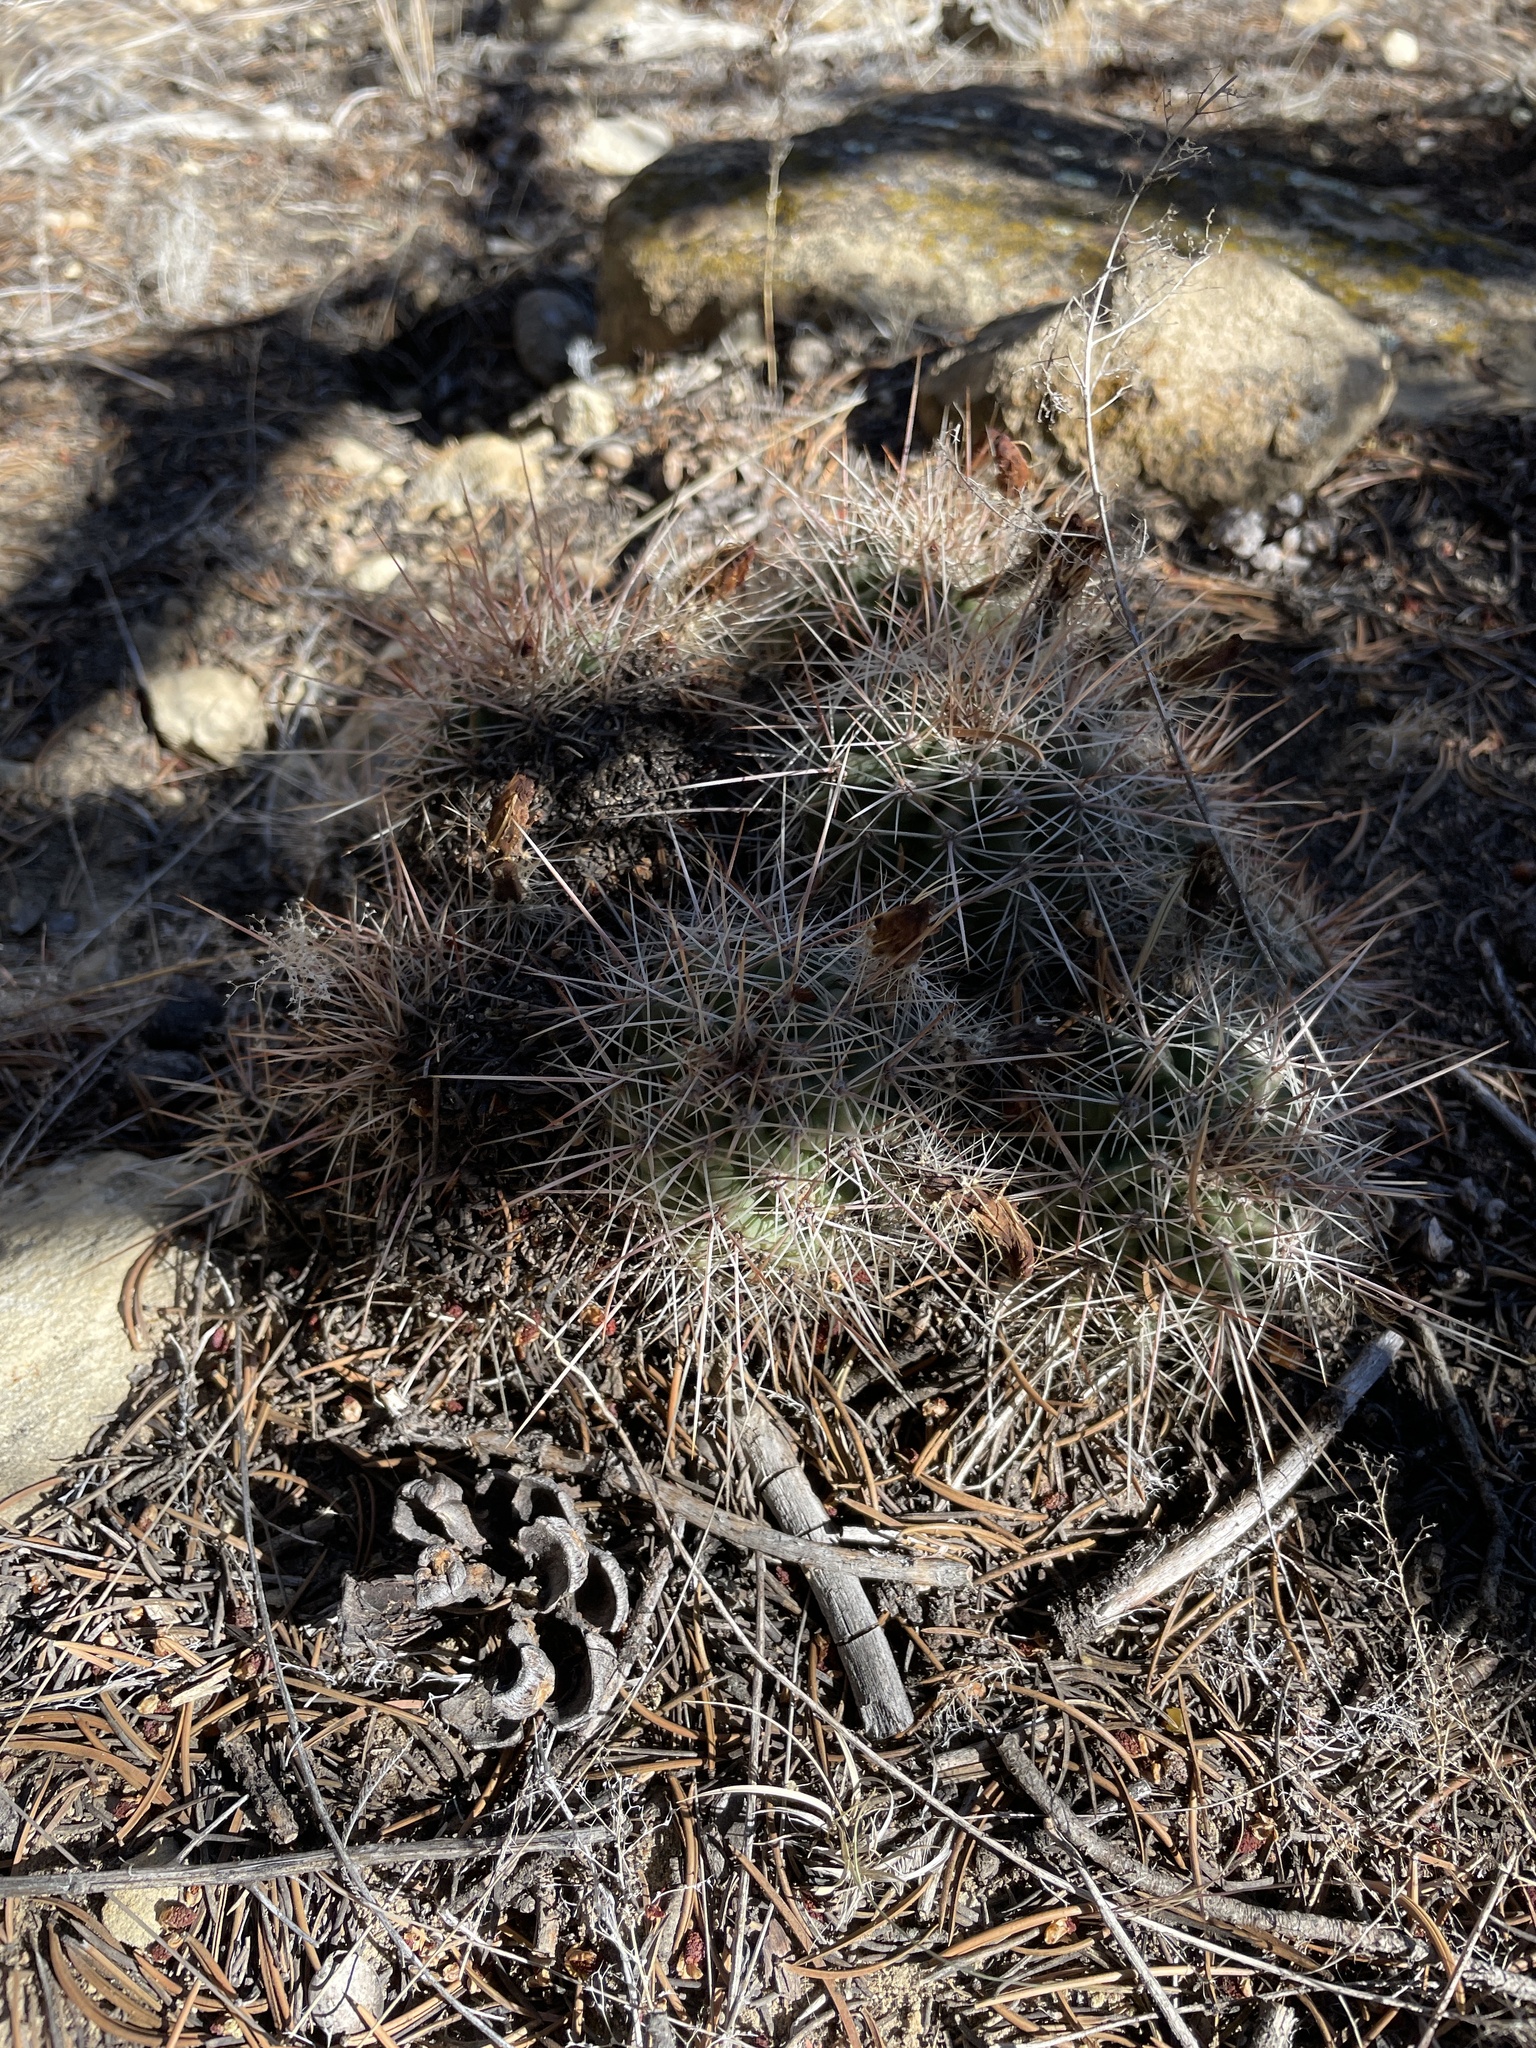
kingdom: Plantae
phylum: Tracheophyta
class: Magnoliopsida
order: Caryophyllales
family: Cactaceae
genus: Echinocereus
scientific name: Echinocereus coccineus
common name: Scarlet hedgehog cactus
